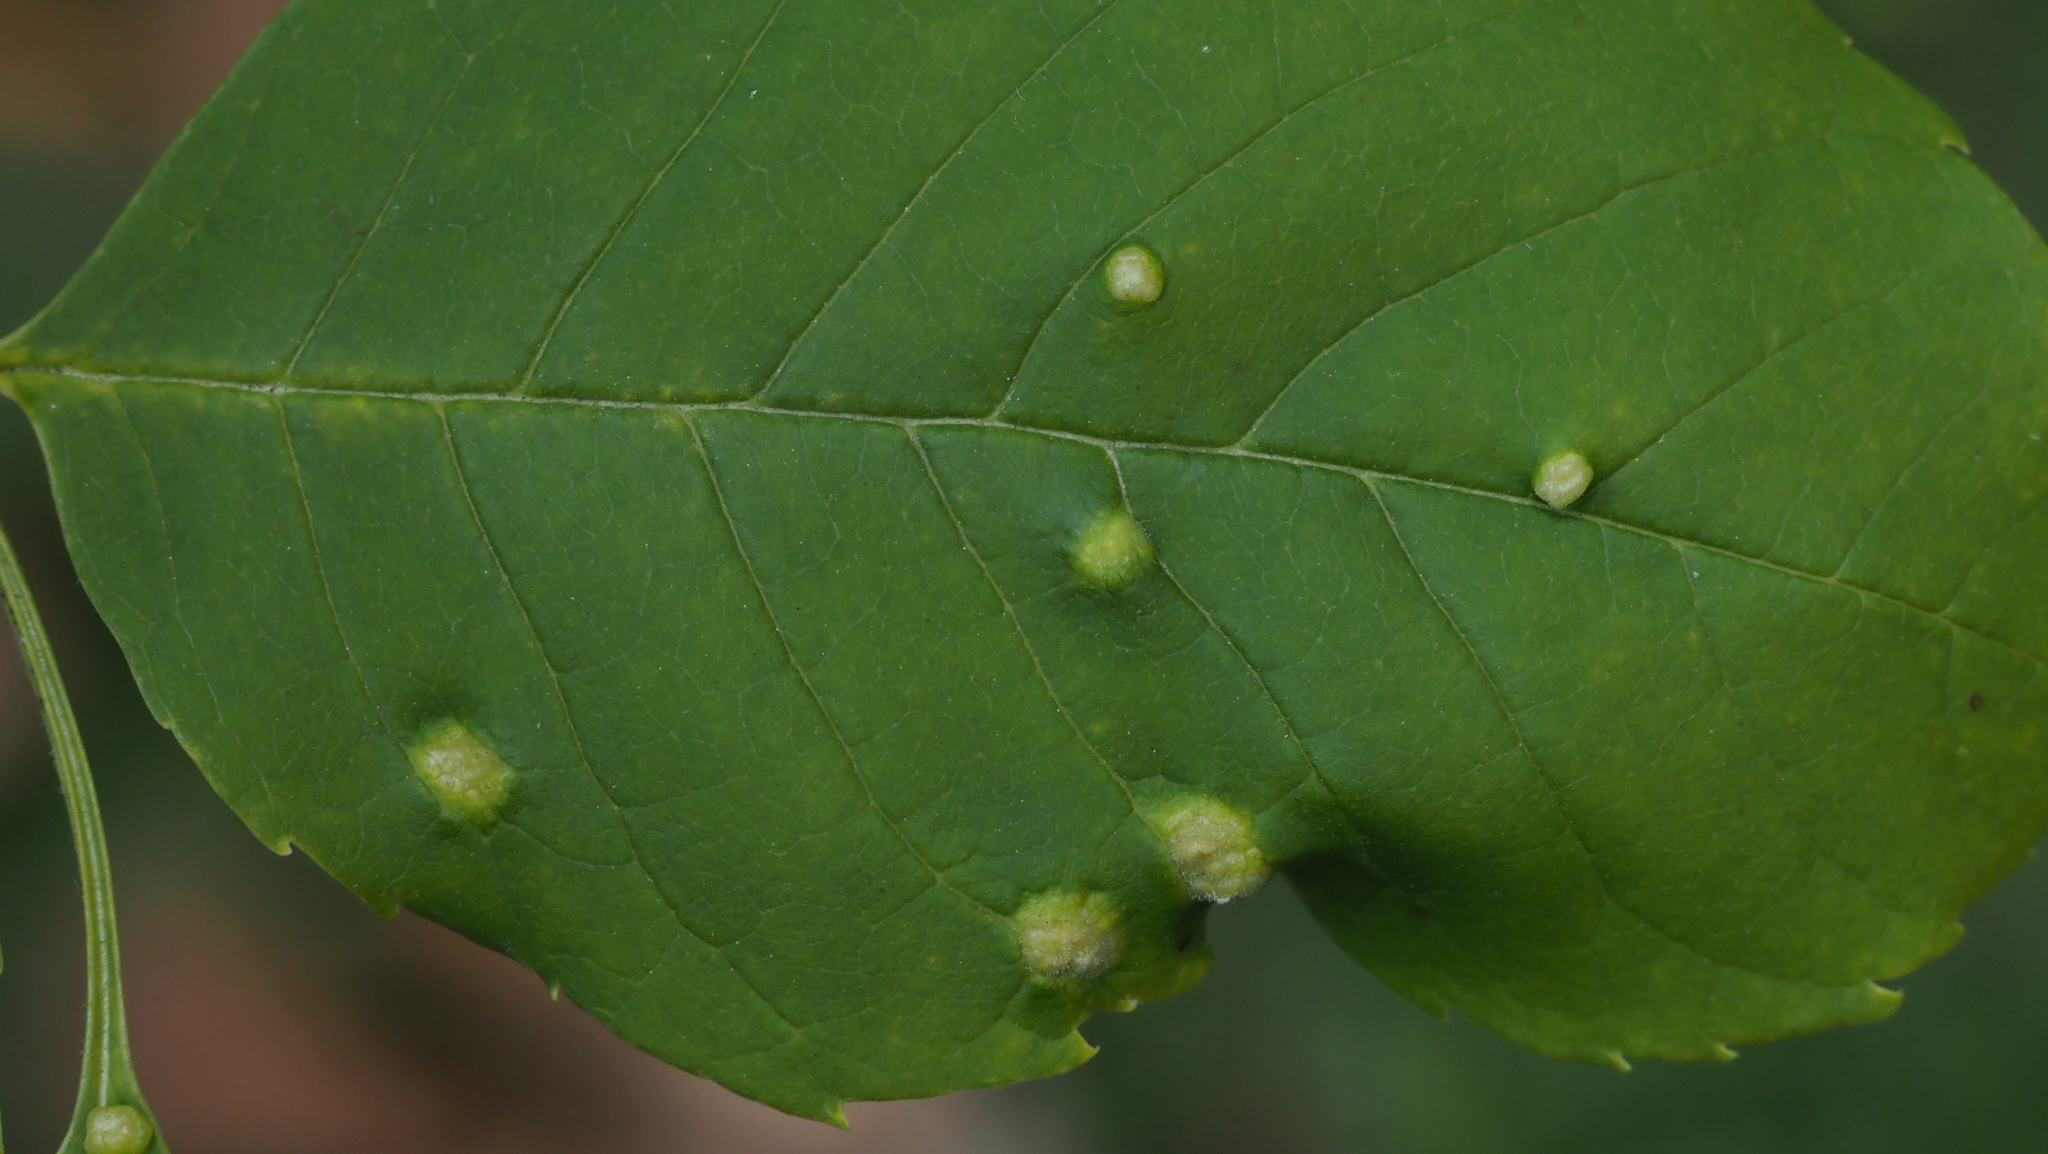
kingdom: Animalia
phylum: Arthropoda
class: Arachnida
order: Trombidiformes
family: Eriophyidae
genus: Aceria
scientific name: Aceria fraxinicola
